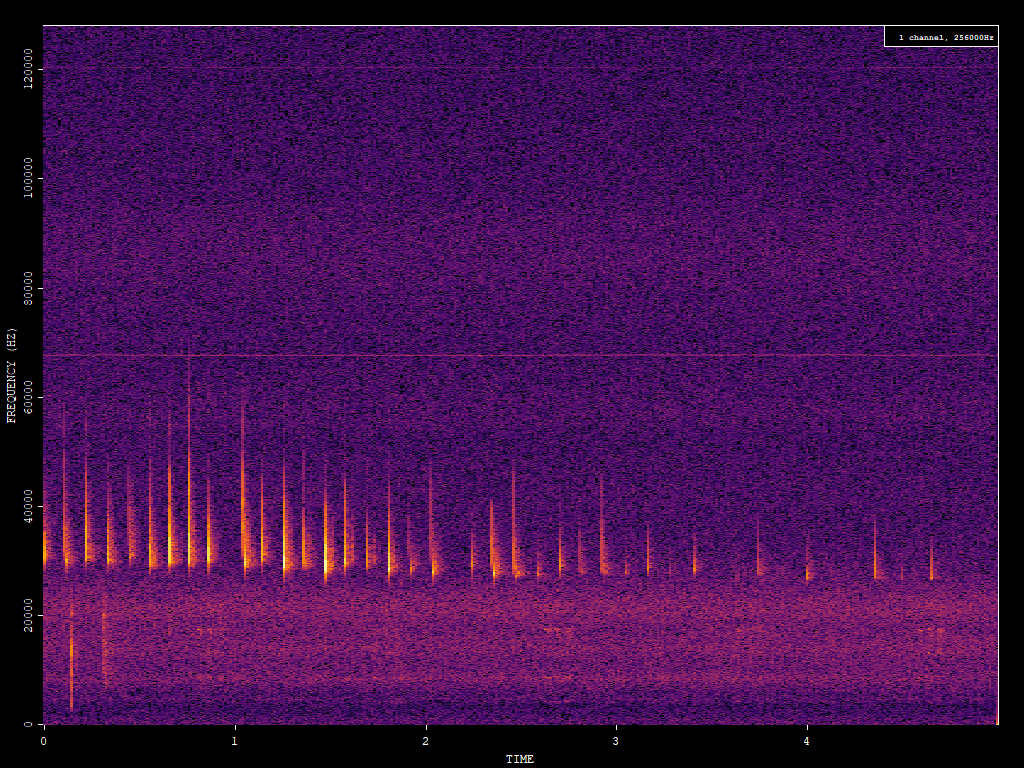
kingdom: Animalia
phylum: Chordata
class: Mammalia
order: Chiroptera
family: Vespertilionidae
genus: Eptesicus
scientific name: Eptesicus fuscus
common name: Big brown bat
